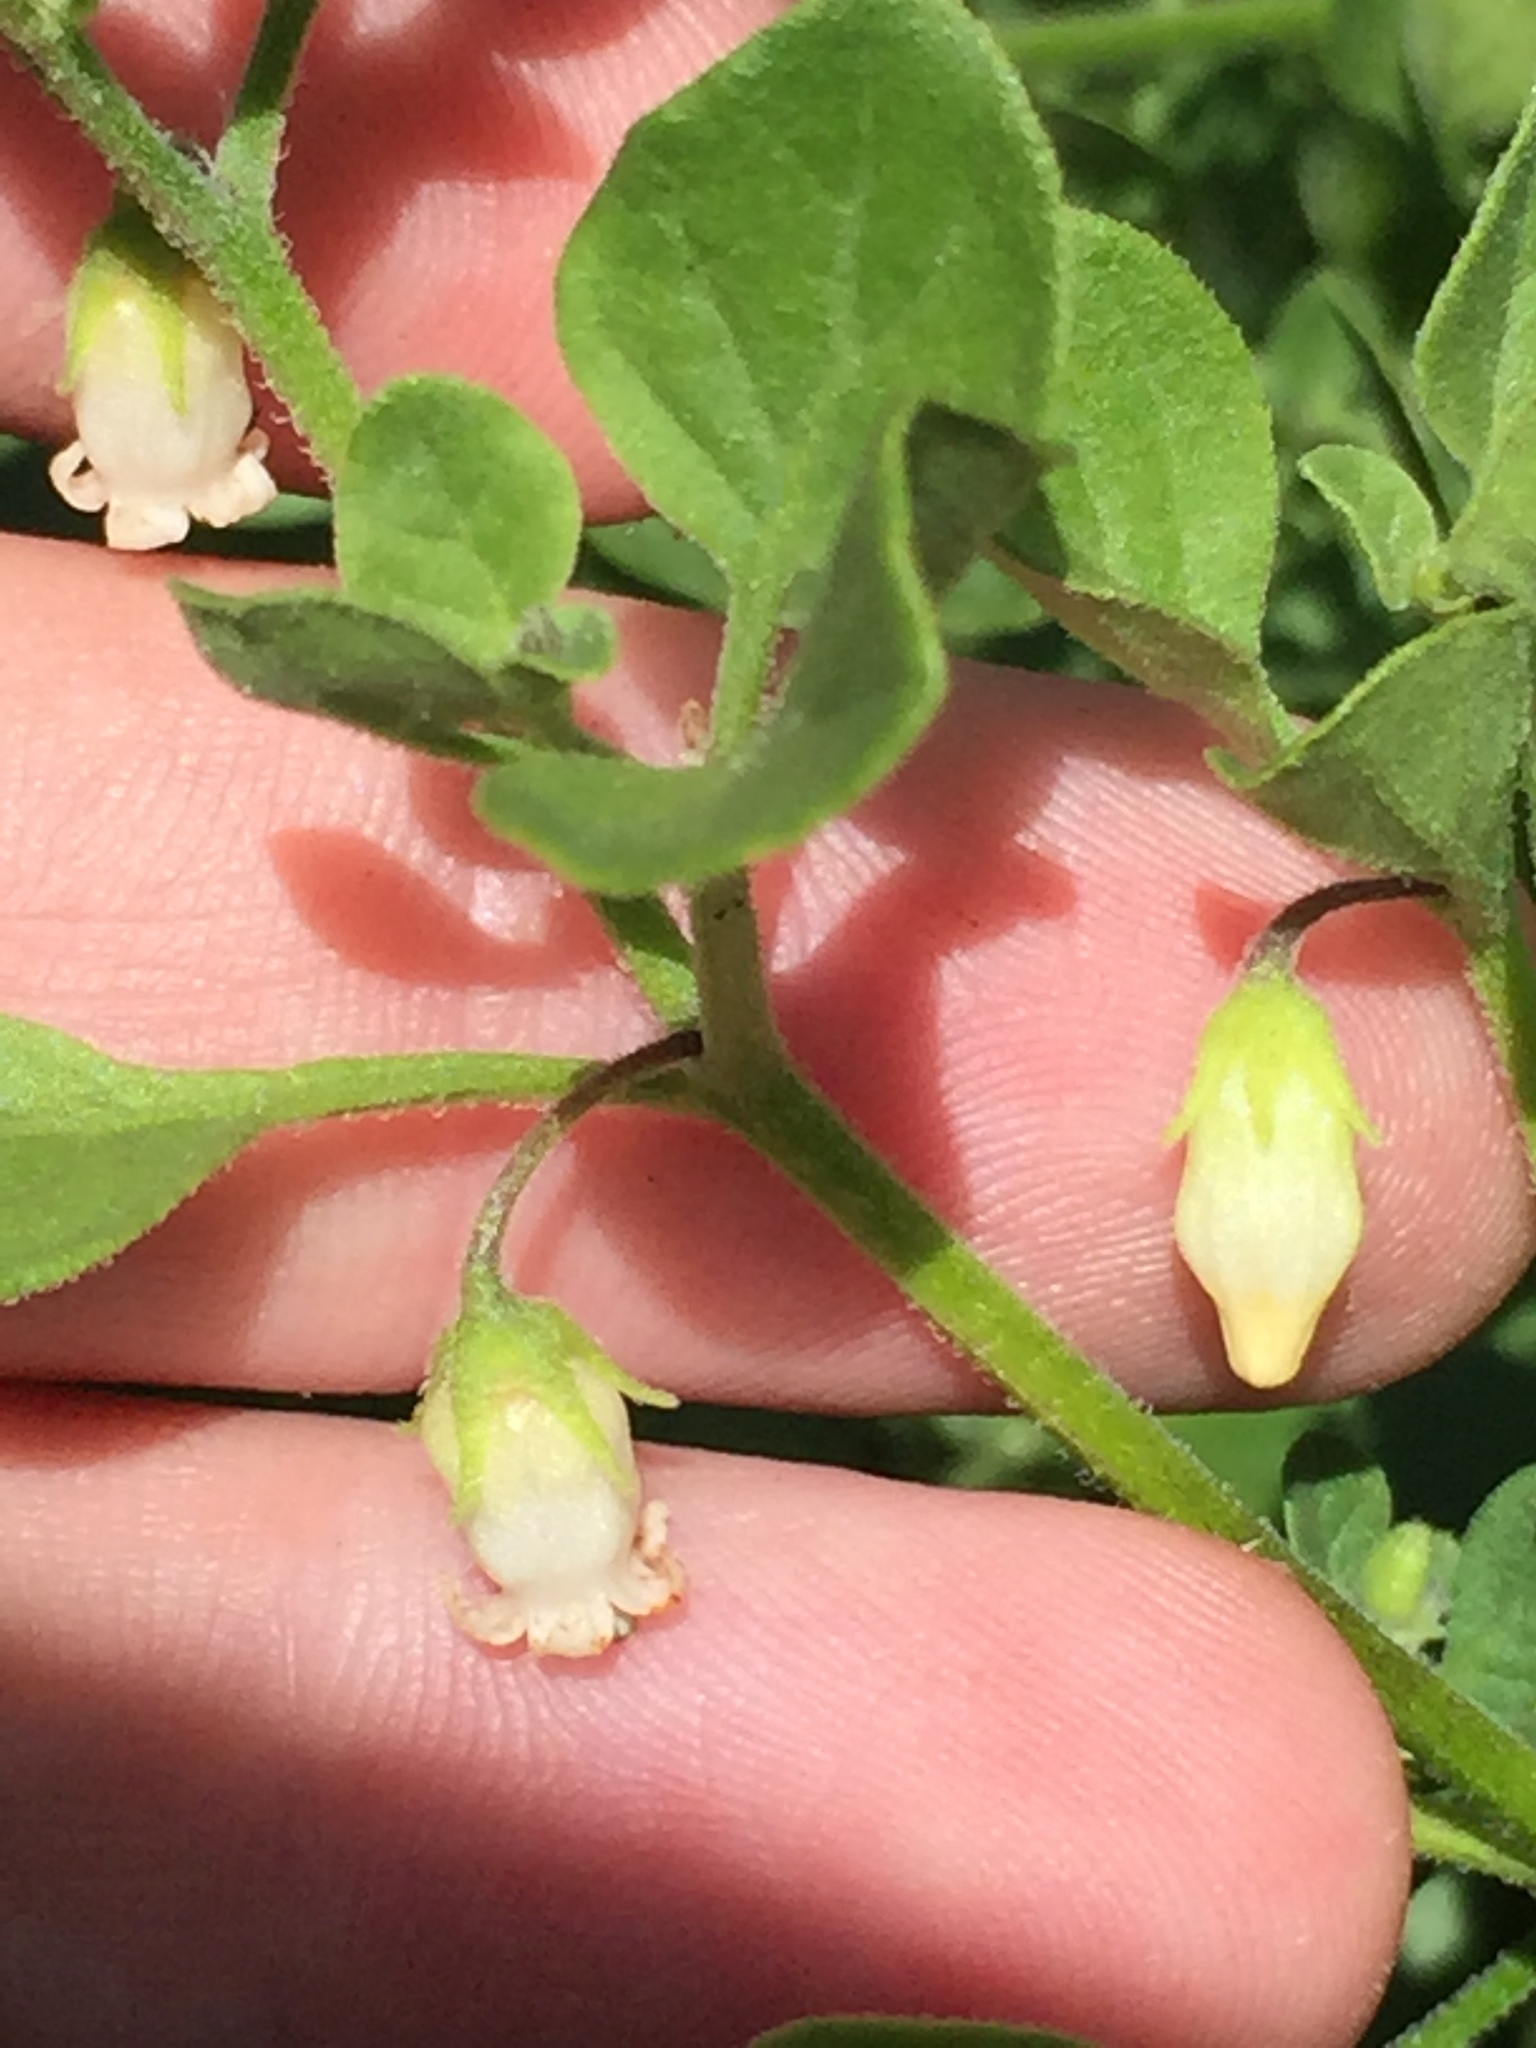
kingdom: Plantae
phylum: Tracheophyta
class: Magnoliopsida
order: Solanales
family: Solanaceae
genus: Salpichroa
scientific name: Salpichroa origanifolia
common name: Lily-of-the-valley-vine
